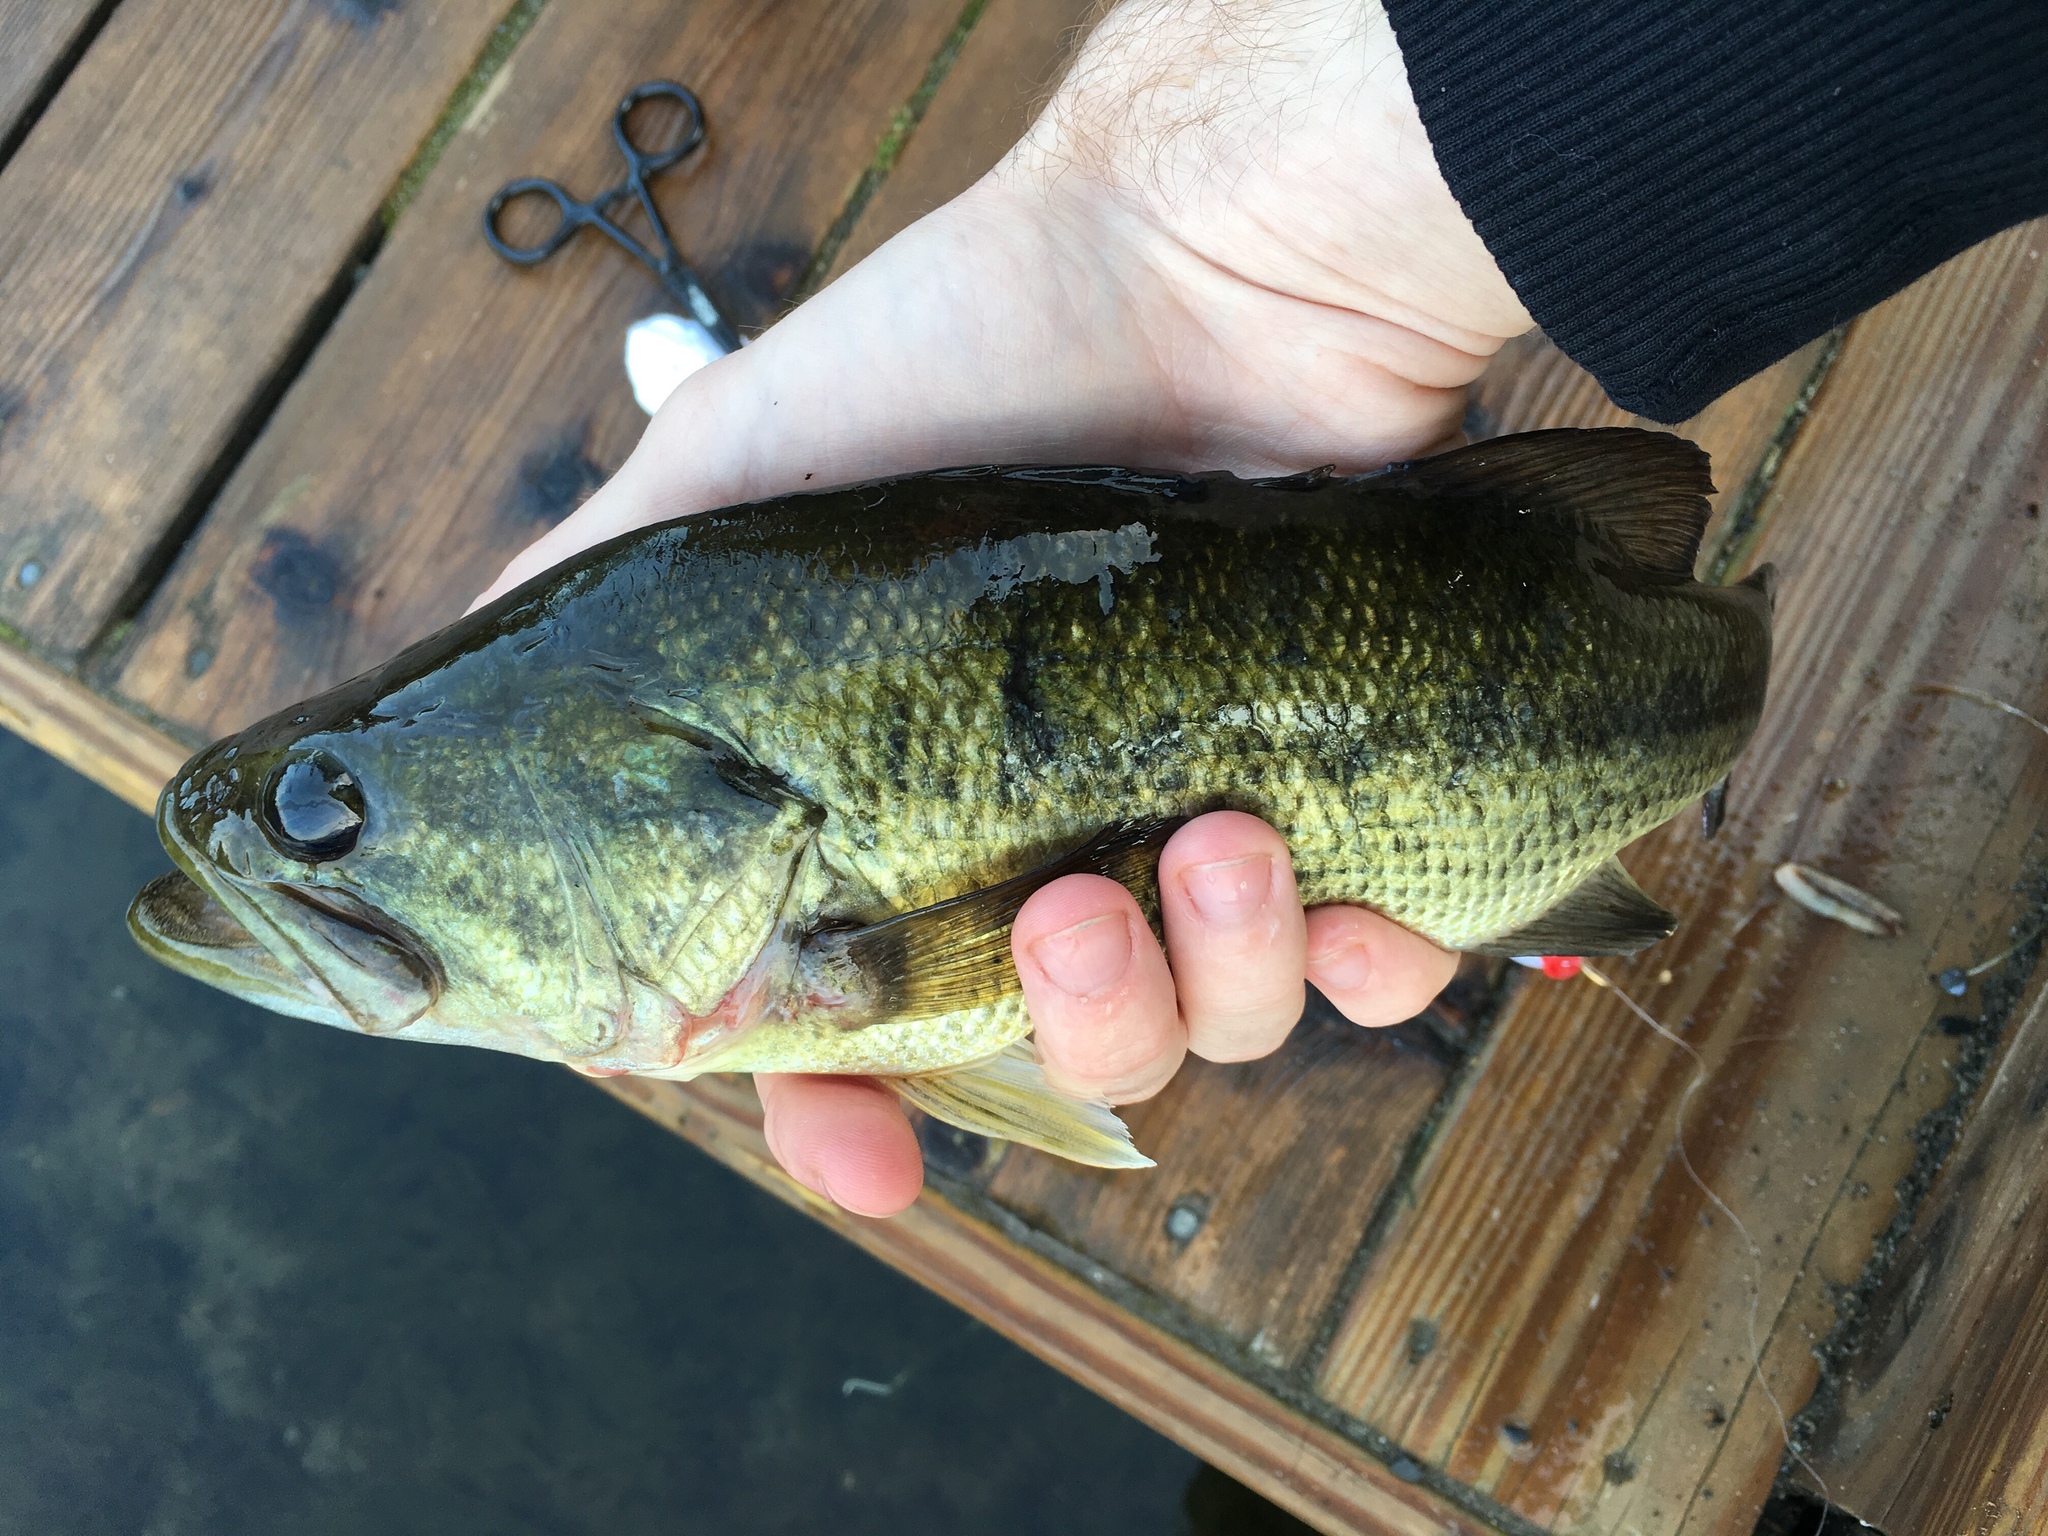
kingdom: Animalia
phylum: Chordata
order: Perciformes
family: Centrarchidae
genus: Micropterus
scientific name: Micropterus
